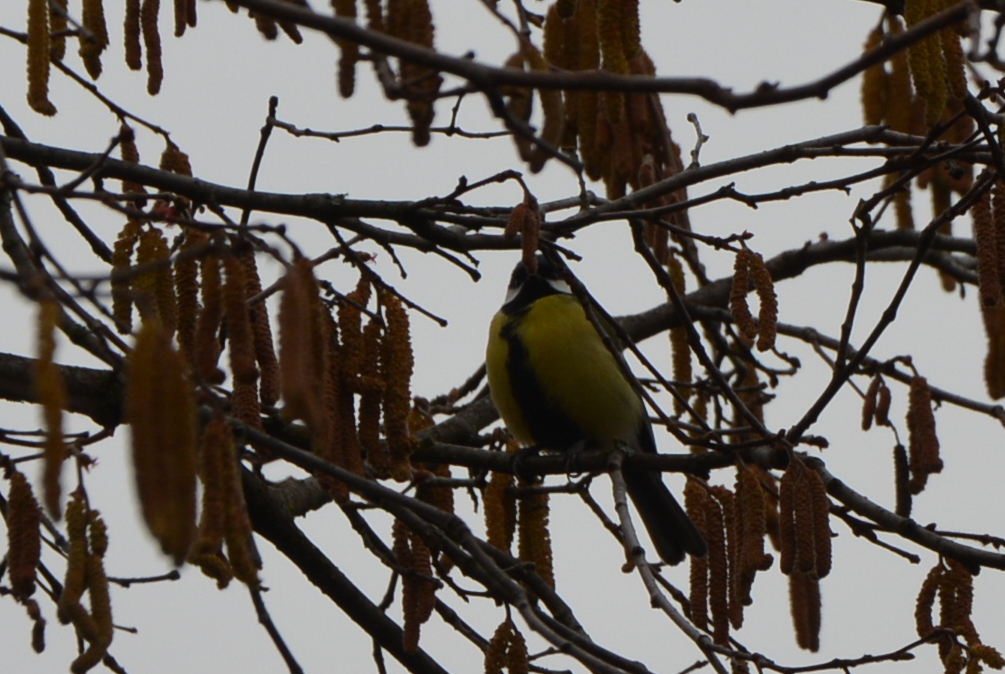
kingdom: Animalia
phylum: Chordata
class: Aves
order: Passeriformes
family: Paridae
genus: Parus
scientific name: Parus major
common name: Great tit
